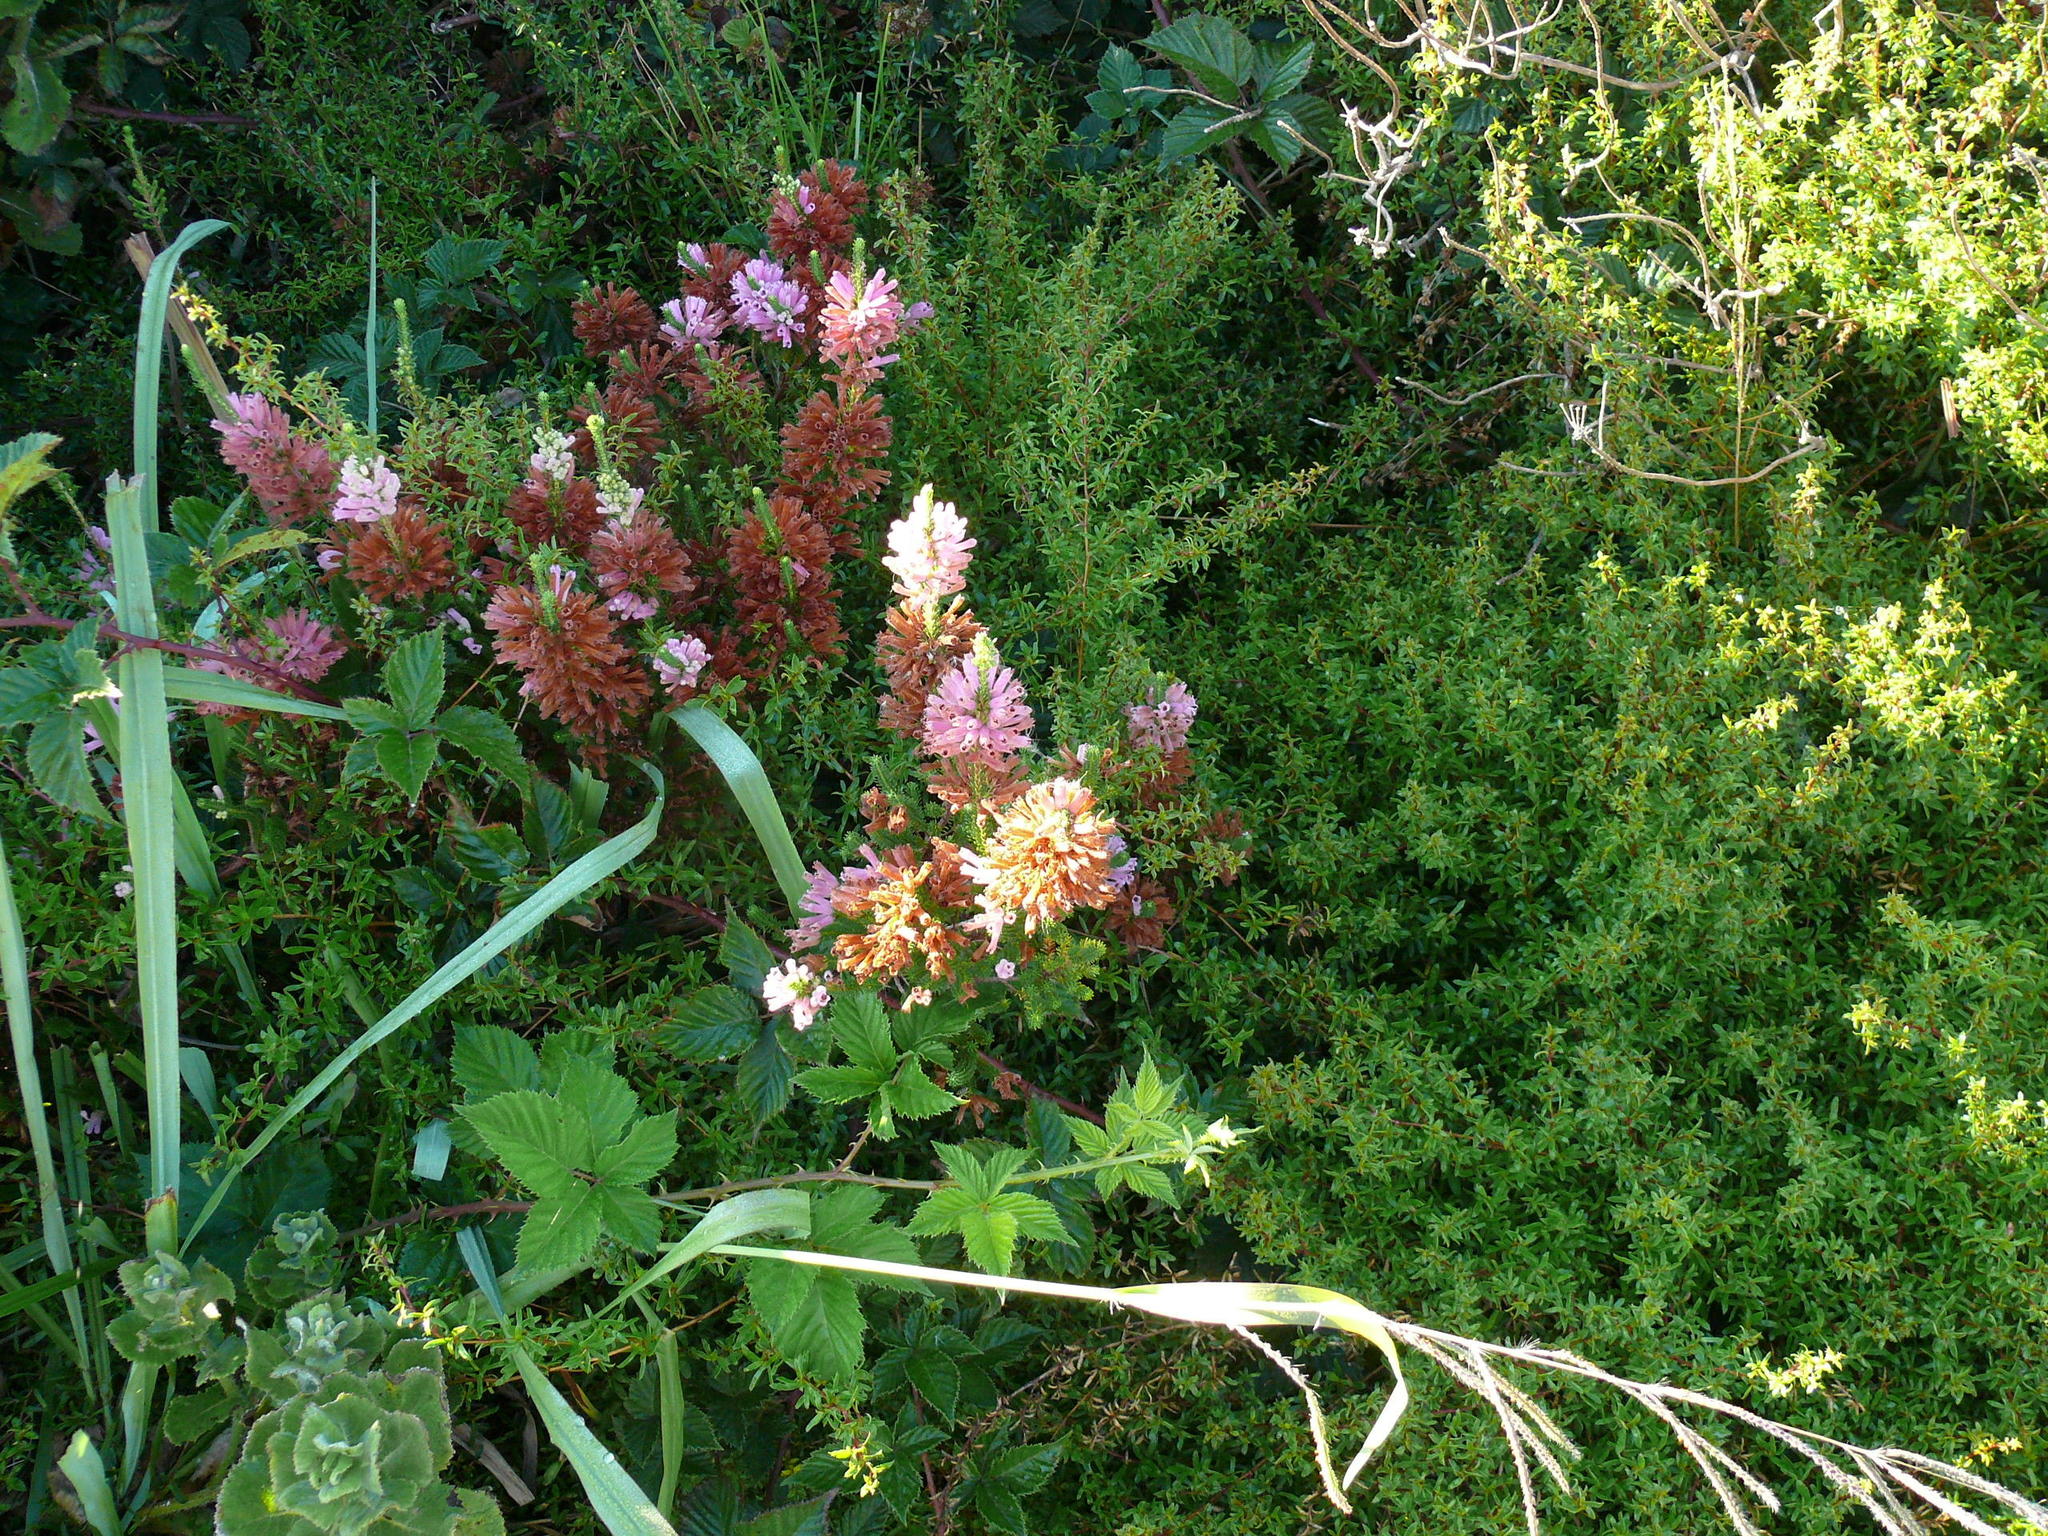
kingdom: Plantae
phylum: Tracheophyta
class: Magnoliopsida
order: Ericales
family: Ericaceae
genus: Erica
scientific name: Erica verticillata
